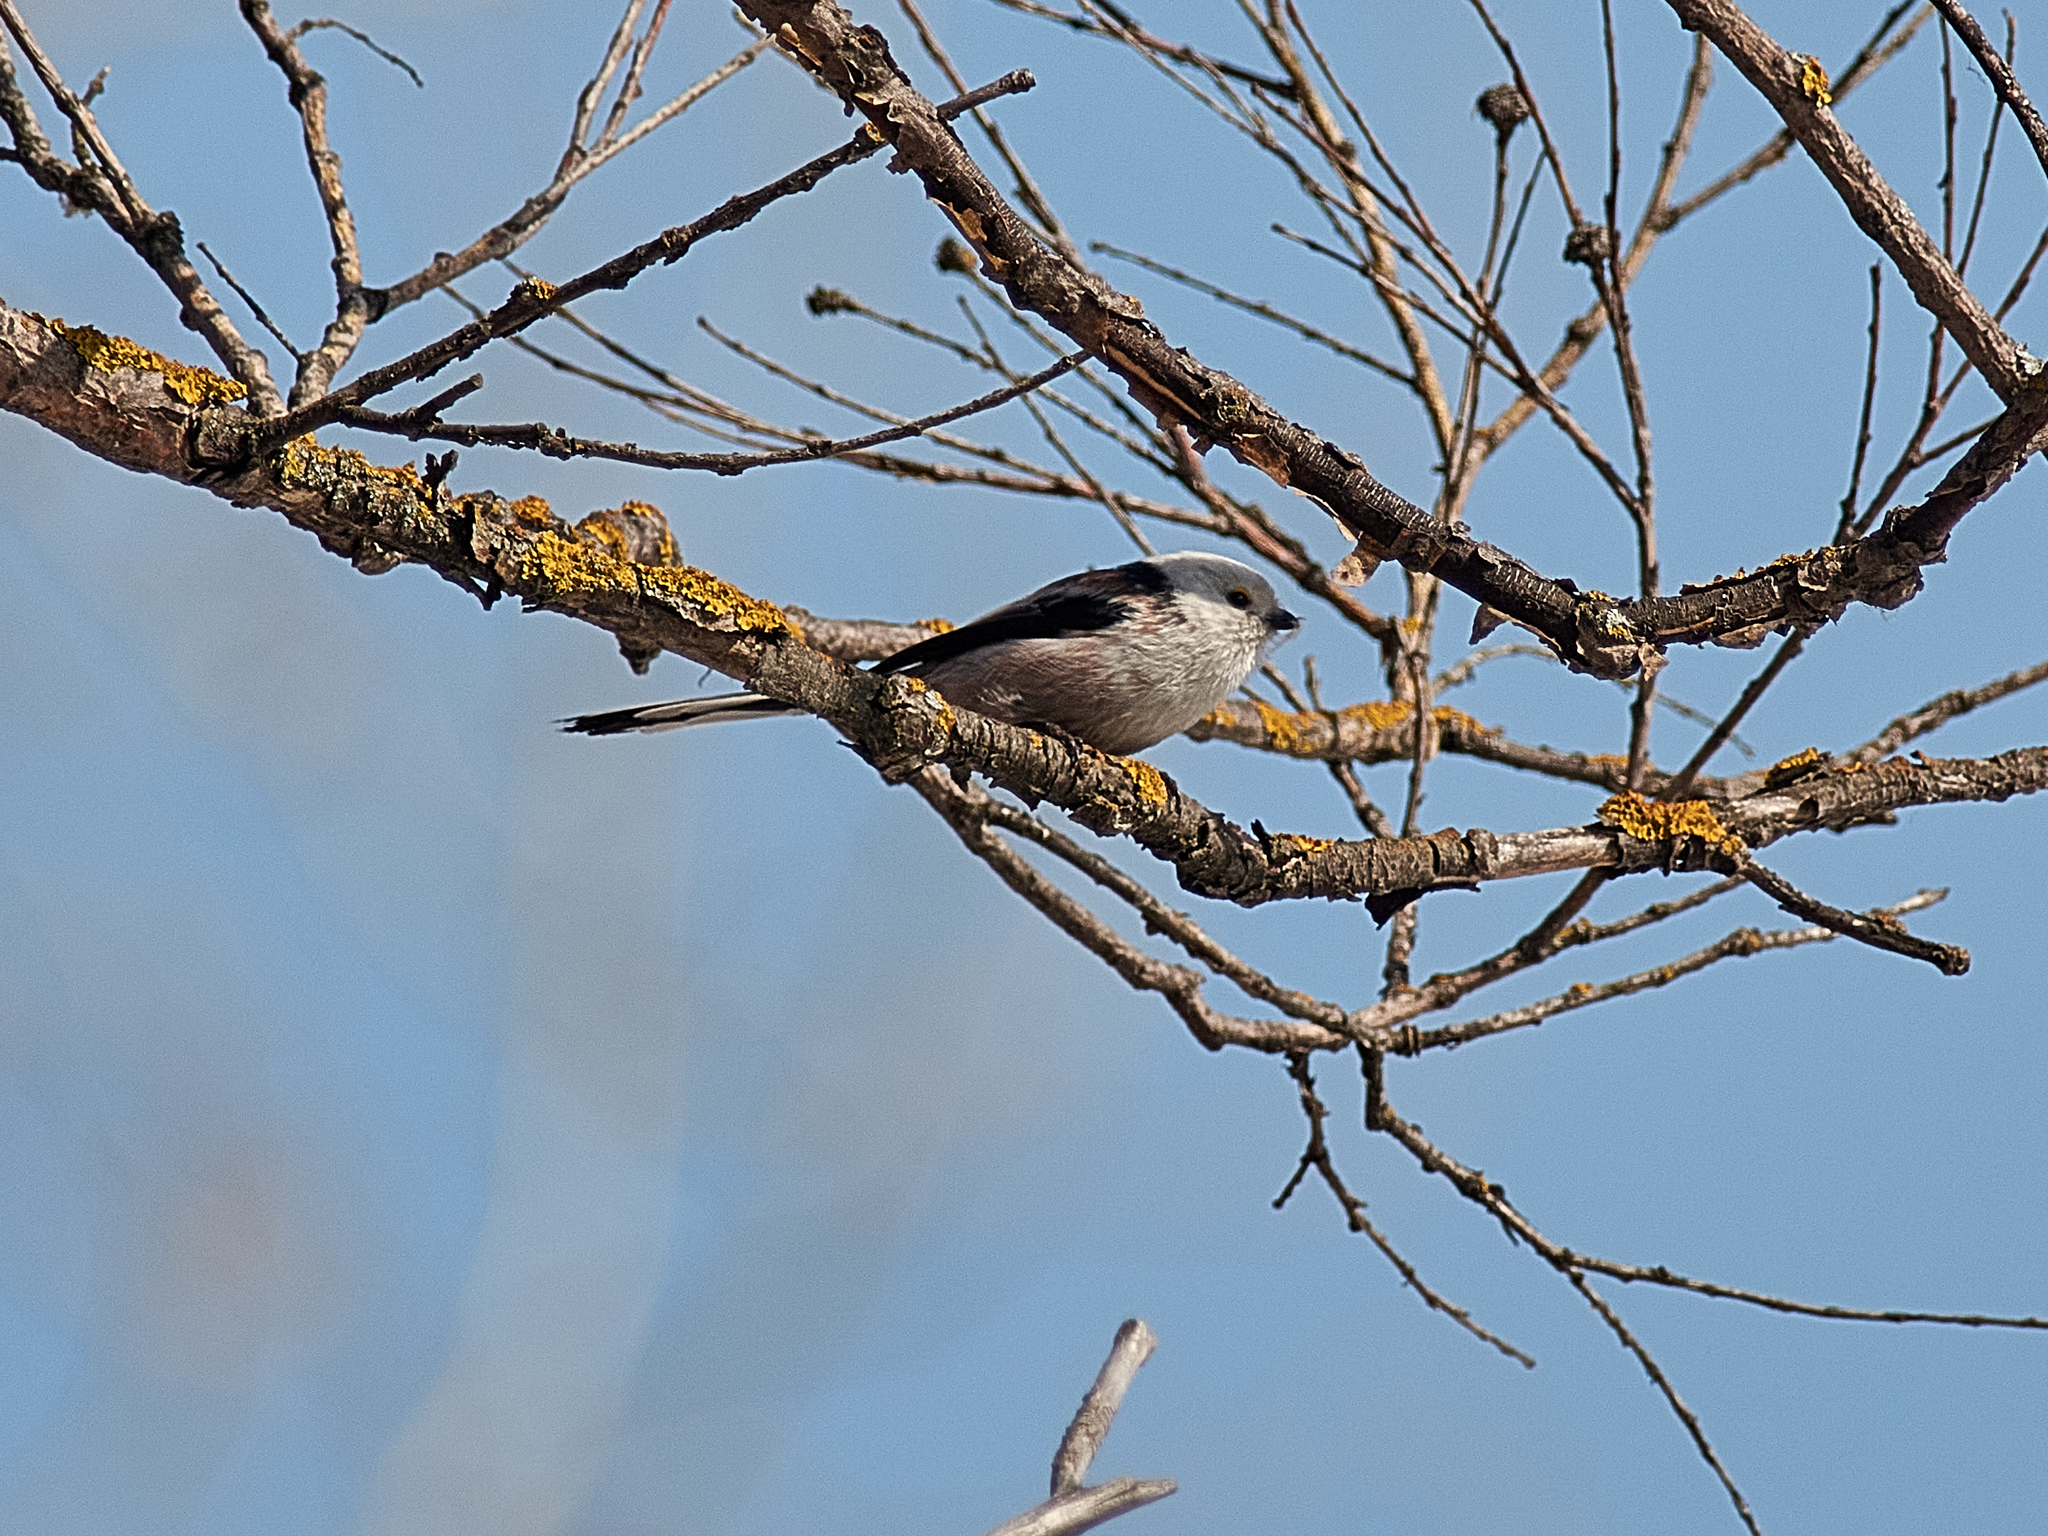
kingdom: Animalia
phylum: Chordata
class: Aves
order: Passeriformes
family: Aegithalidae
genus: Aegithalos
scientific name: Aegithalos caudatus
